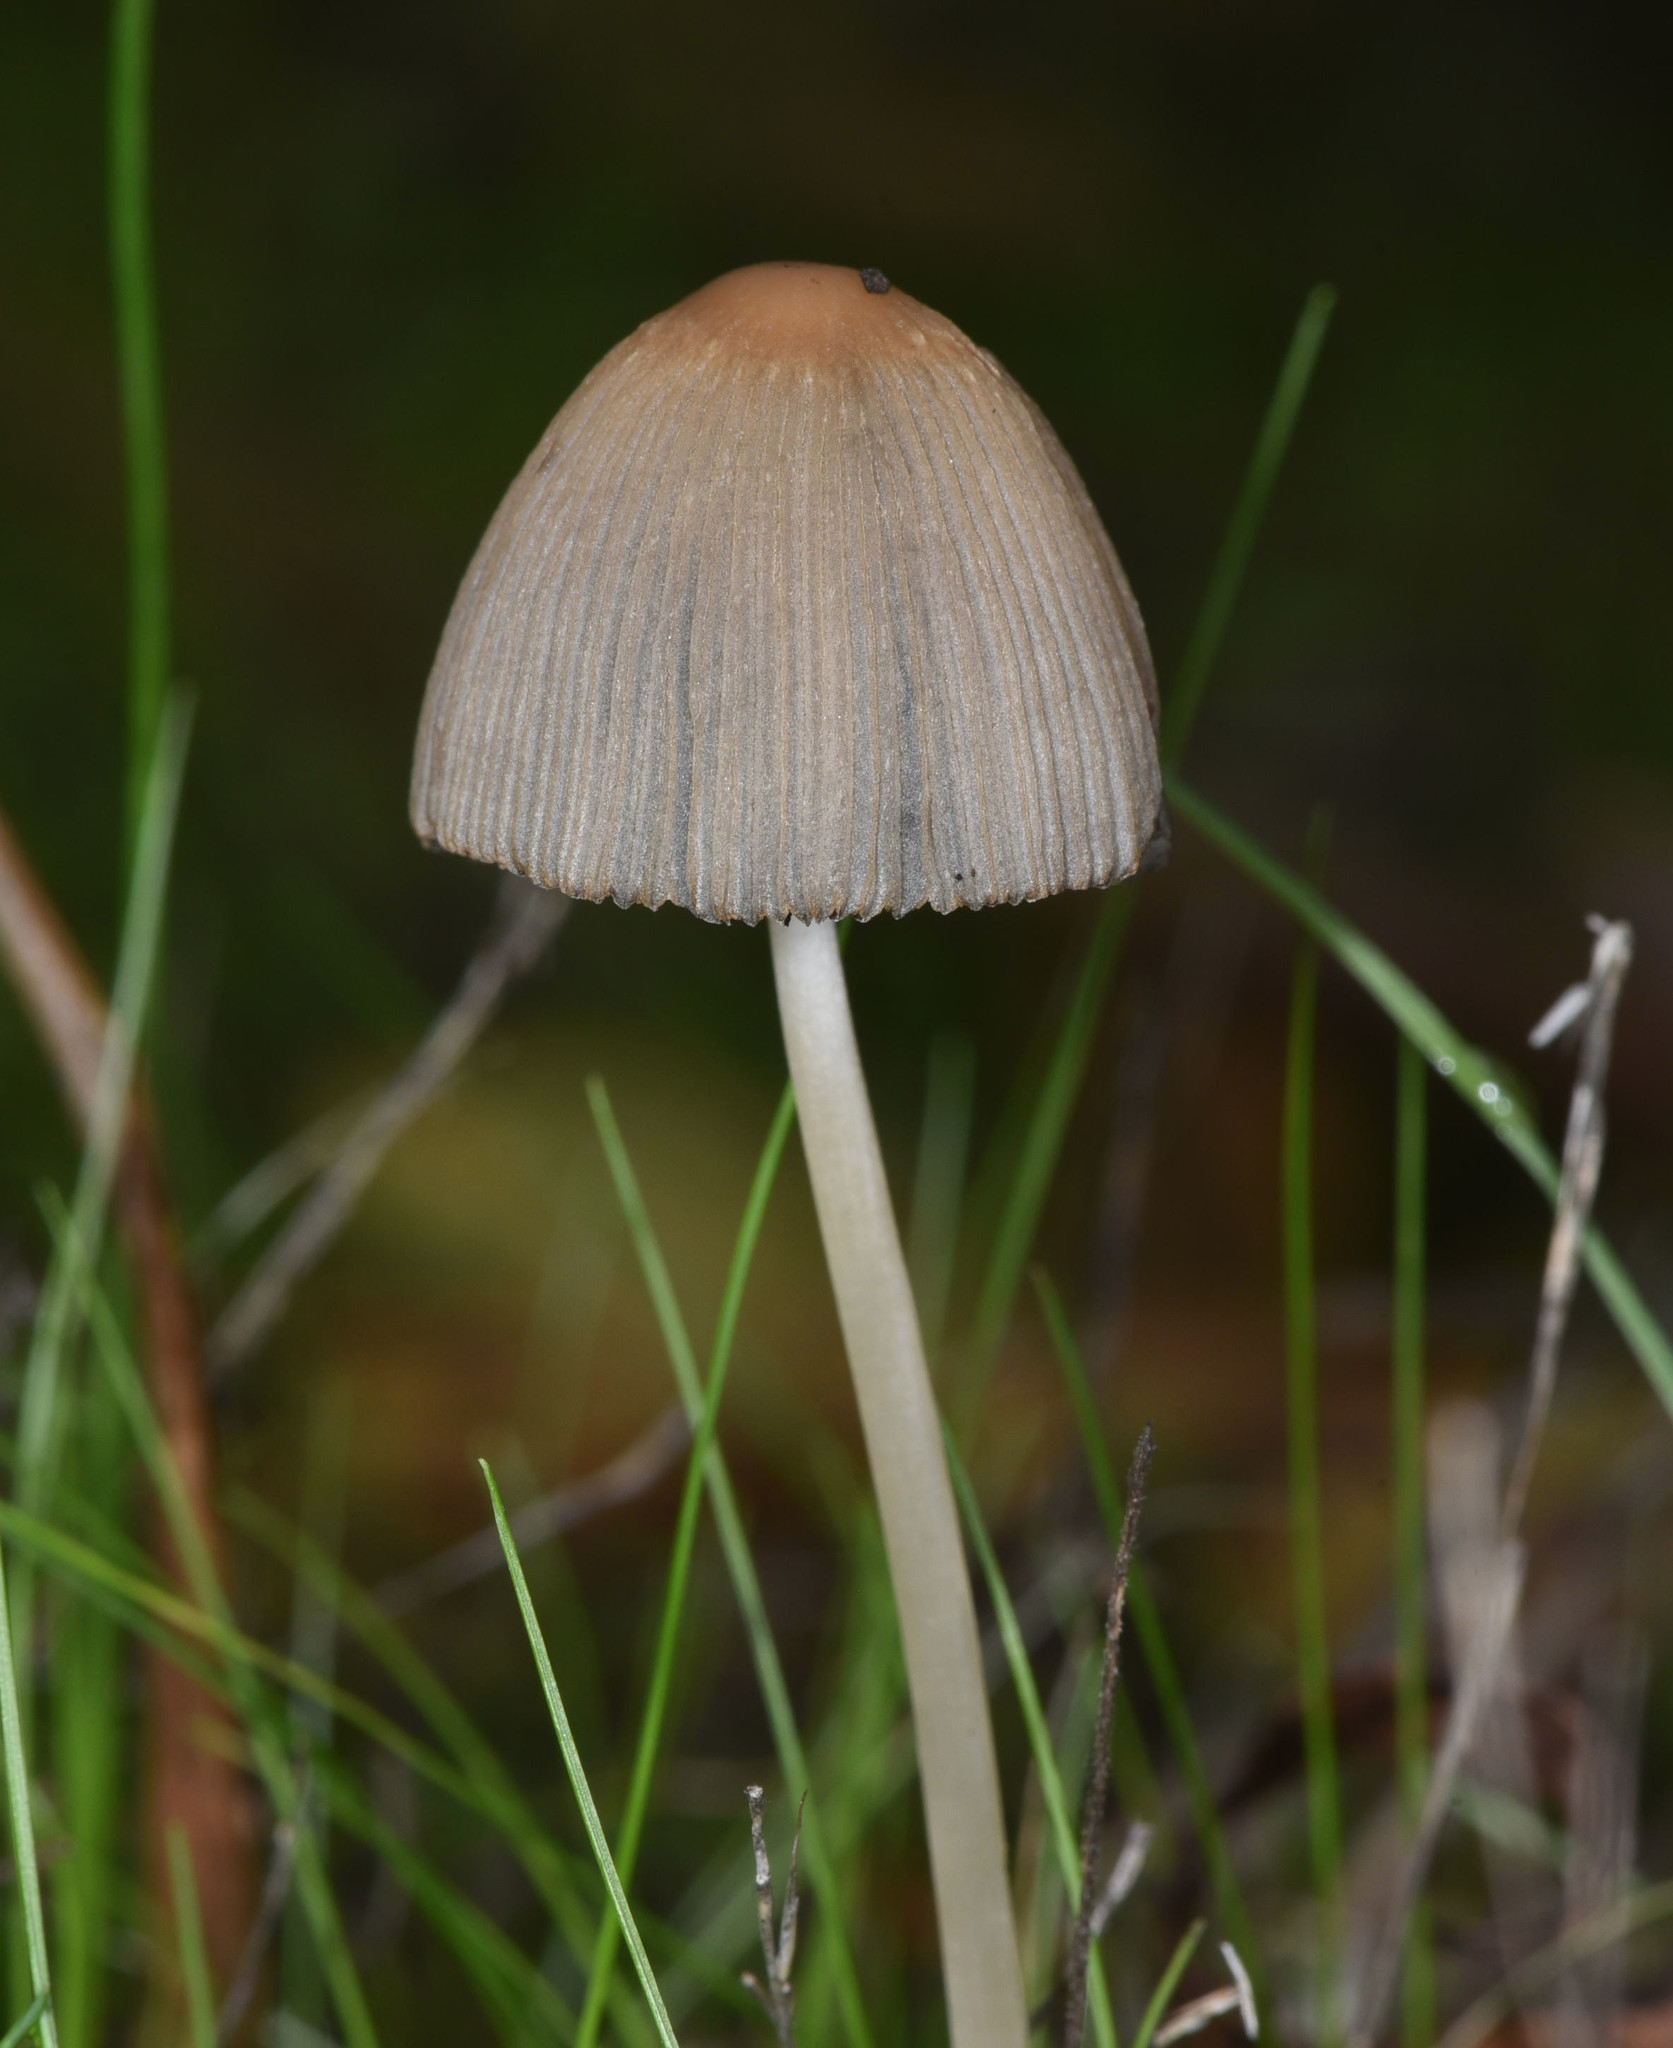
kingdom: Fungi
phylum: Basidiomycota
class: Agaricomycetes
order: Agaricales
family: Psathyrellaceae
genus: Parasola
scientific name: Parasola plicatilis
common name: Pleated inkcap
